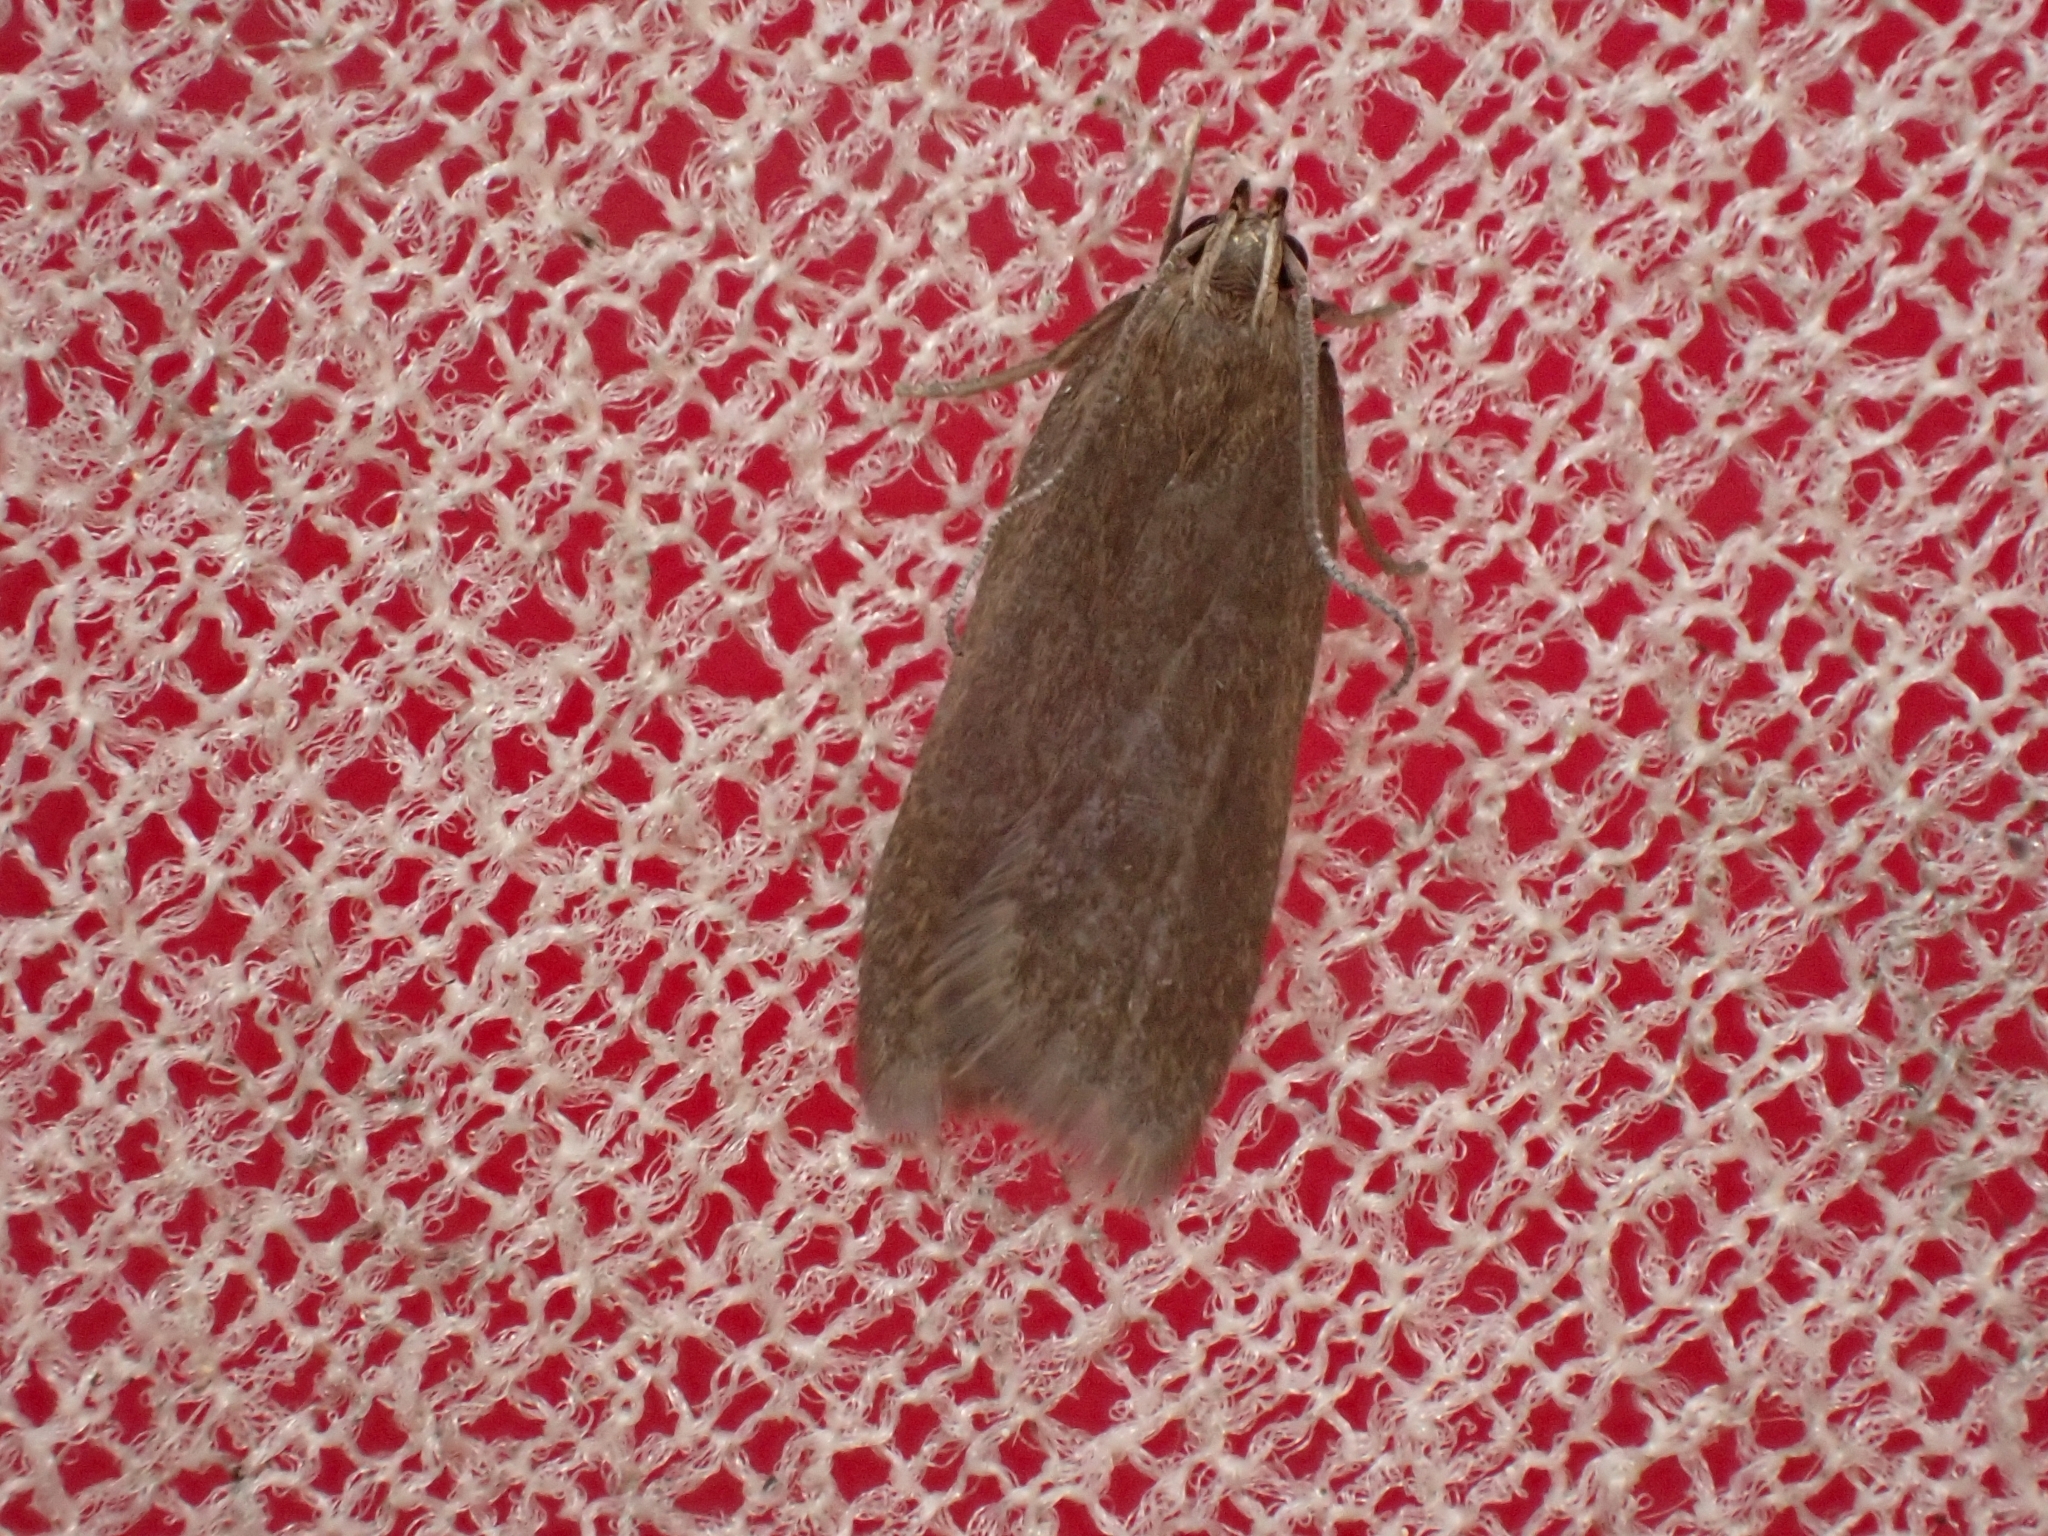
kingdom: Animalia
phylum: Arthropoda
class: Insecta
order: Lepidoptera
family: Gelechiidae
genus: Acompsia
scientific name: Acompsia cinerella
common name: Ash-coloured sober
